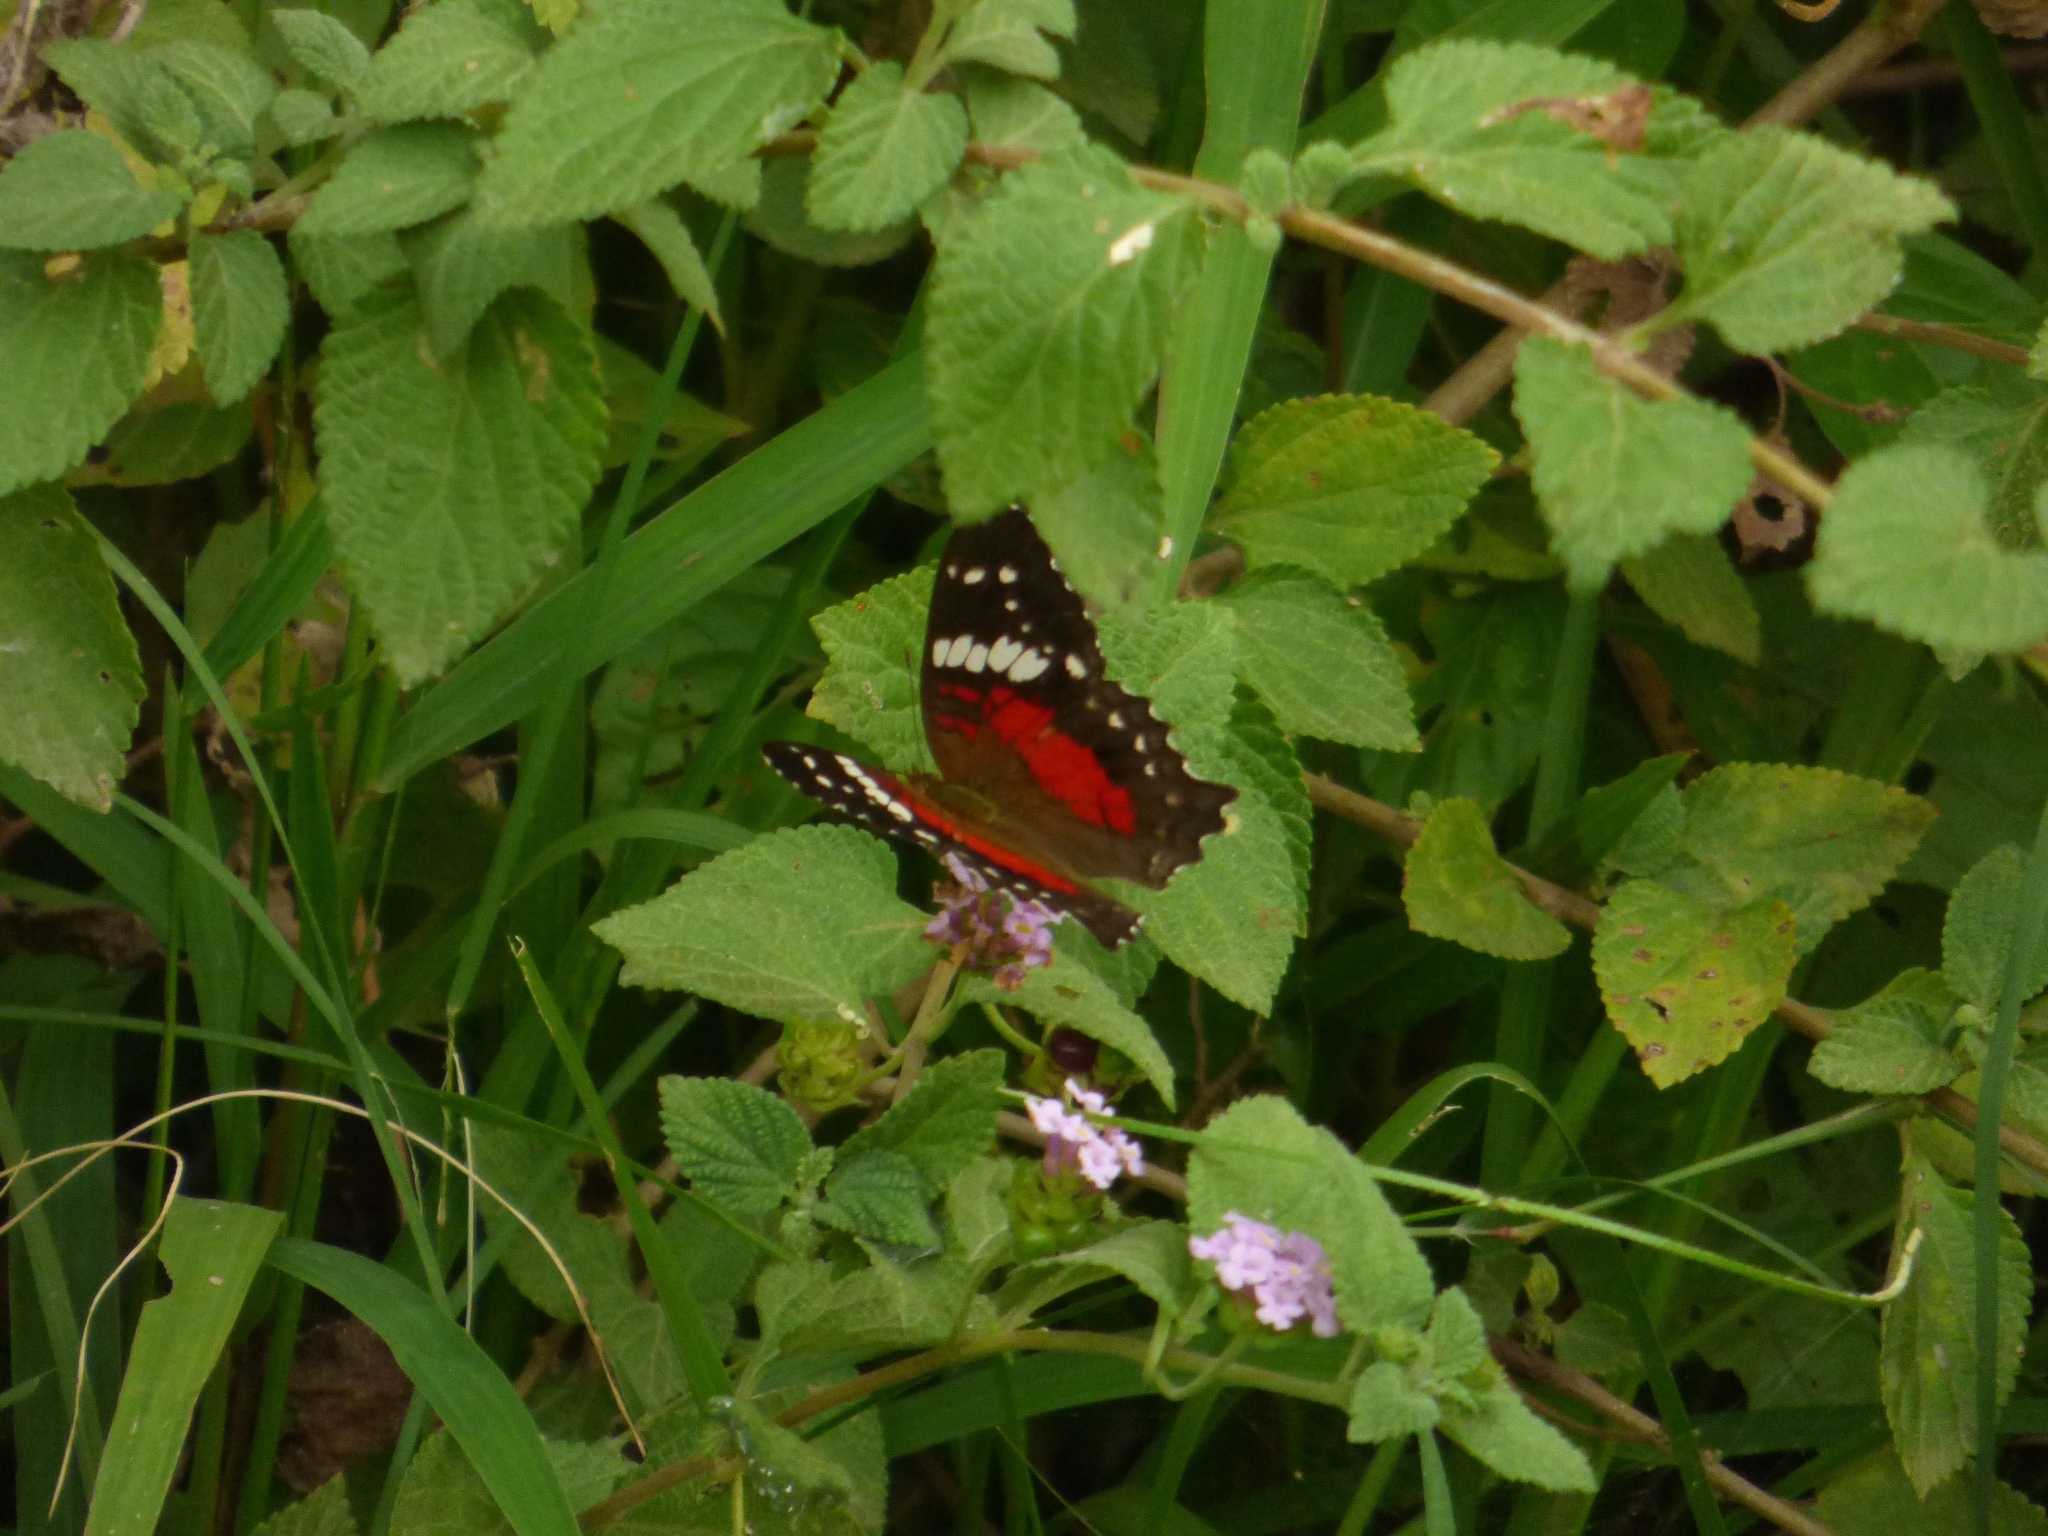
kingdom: Animalia
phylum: Arthropoda
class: Insecta
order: Lepidoptera
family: Nymphalidae
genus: Anartia
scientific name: Anartia amathea
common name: Red peacock
